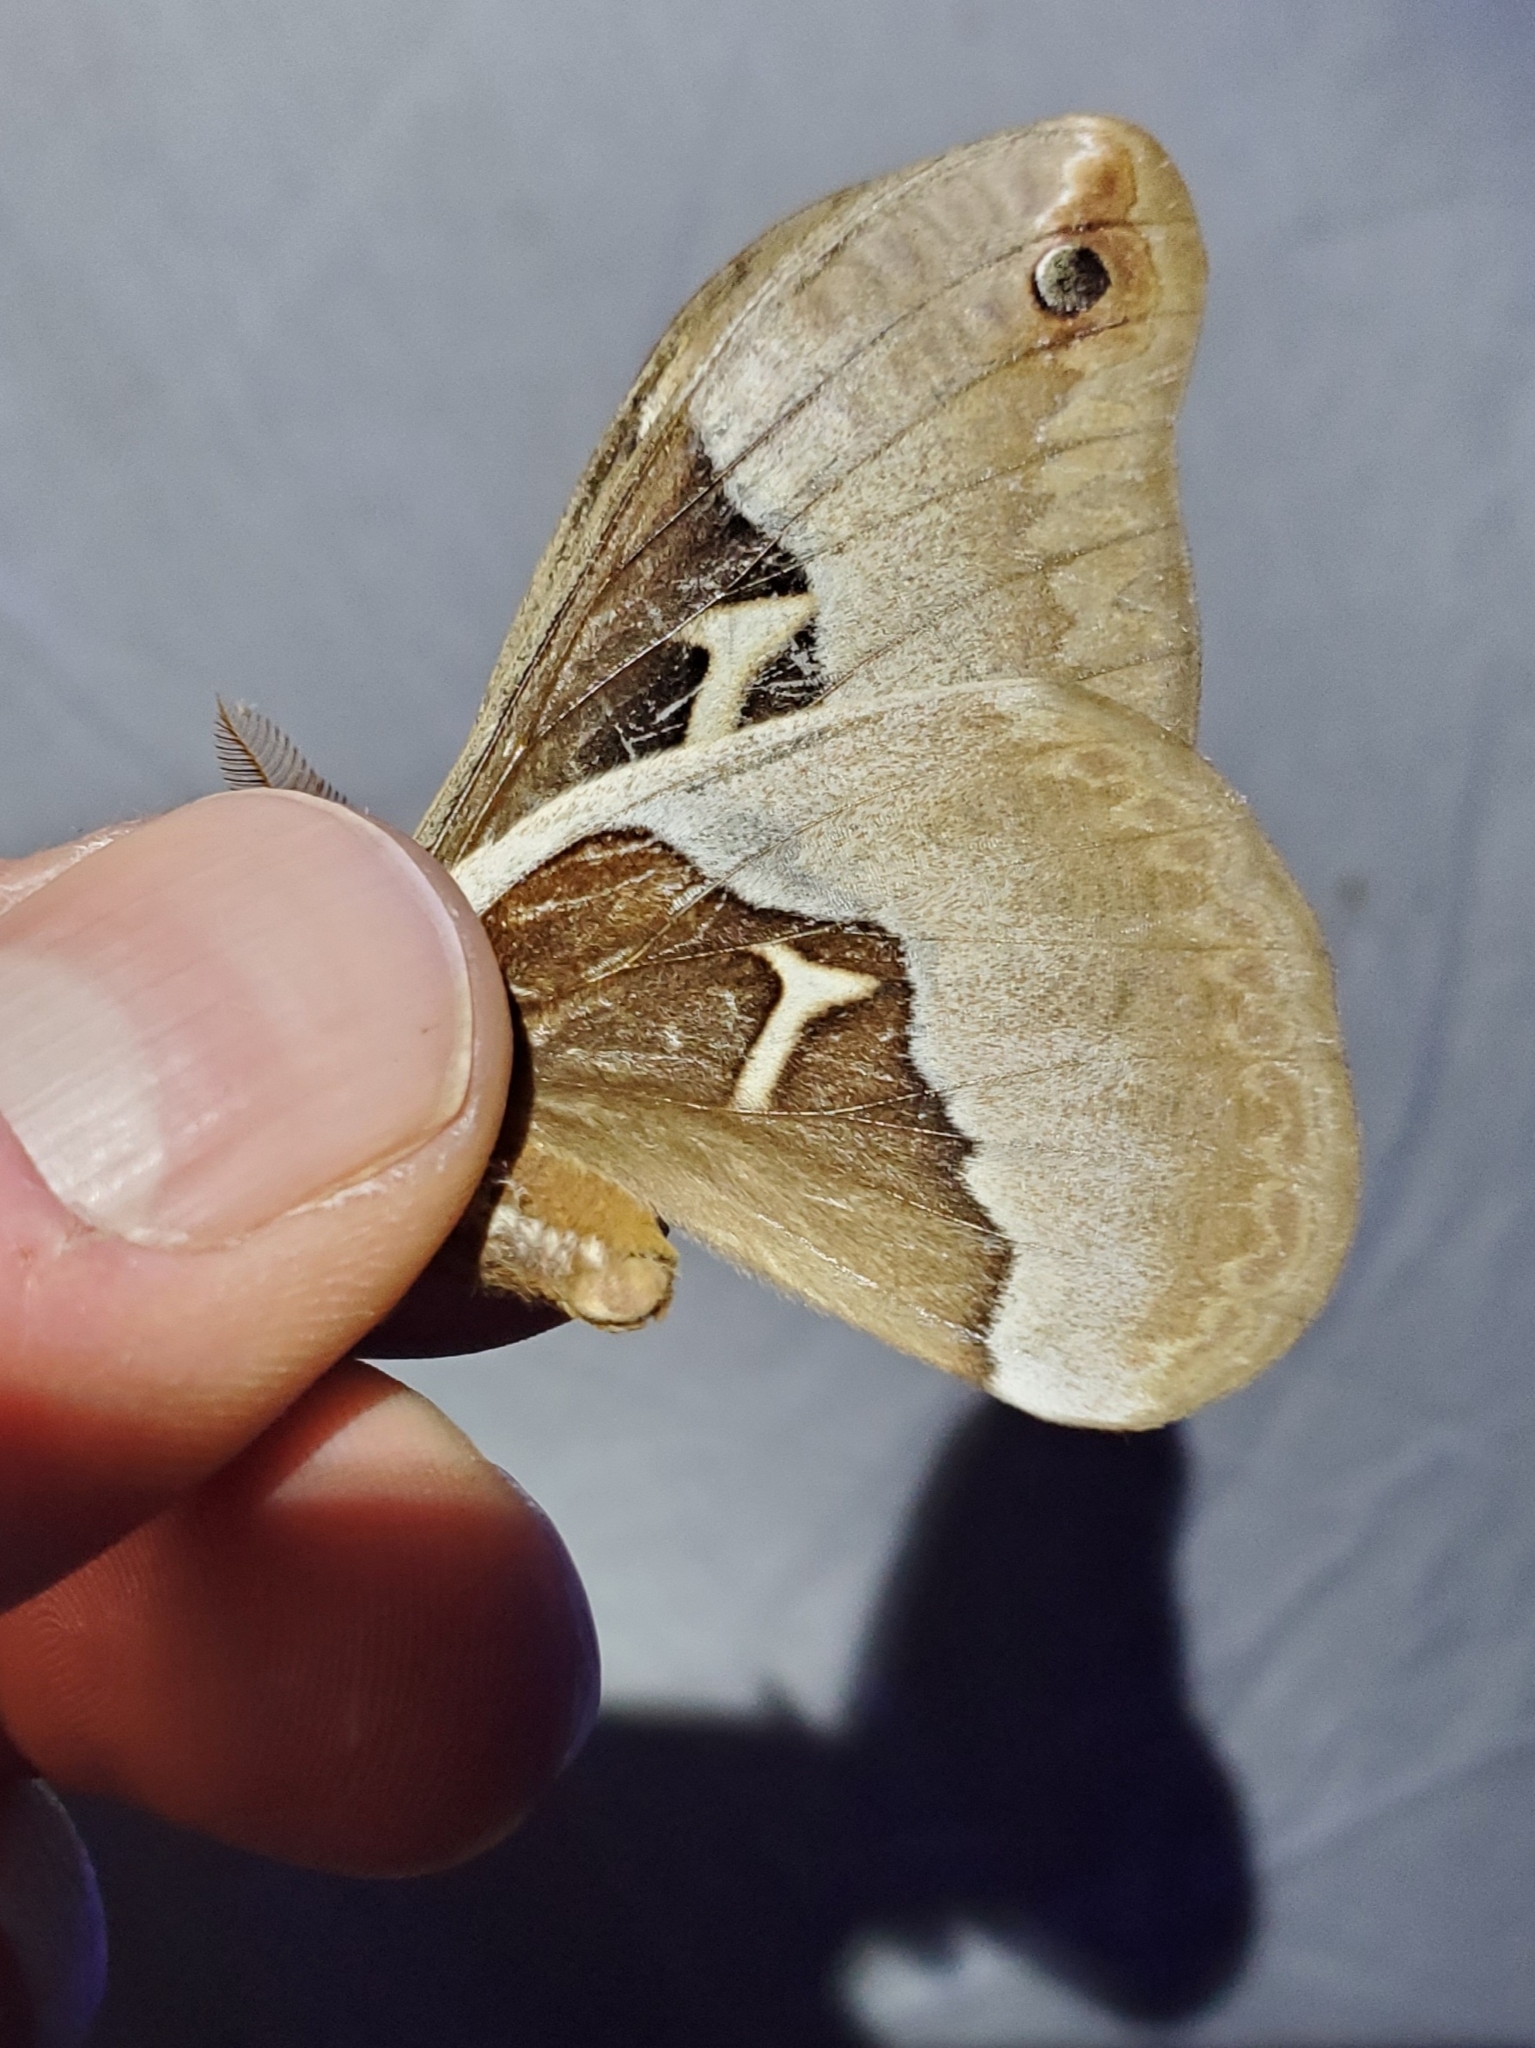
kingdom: Animalia
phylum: Arthropoda
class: Insecta
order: Lepidoptera
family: Saturniidae
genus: Callosamia
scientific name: Callosamia angulifera
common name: Tulip tree silkmoth
